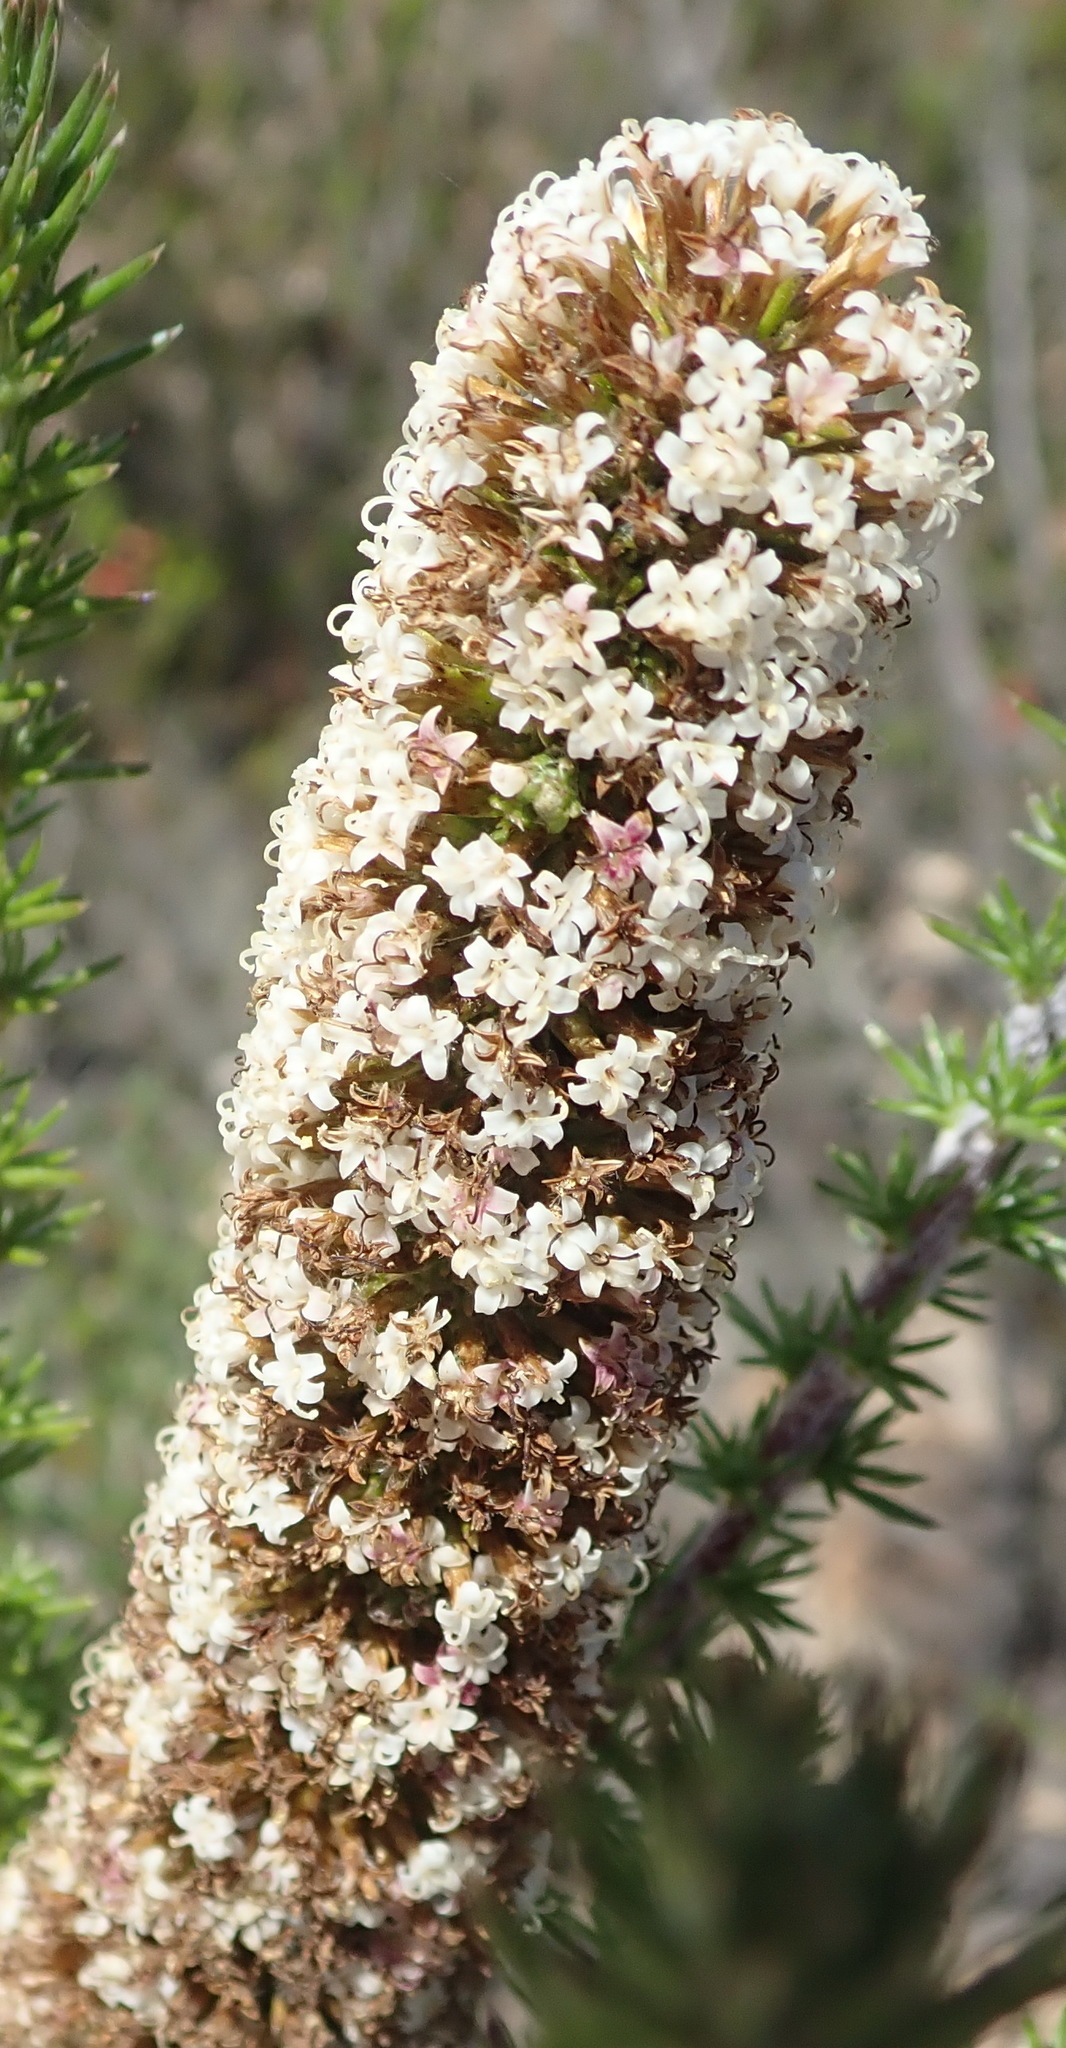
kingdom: Plantae
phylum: Tracheophyta
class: Magnoliopsida
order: Asterales
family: Asteraceae
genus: Stoebe
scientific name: Stoebe alopecuroides
